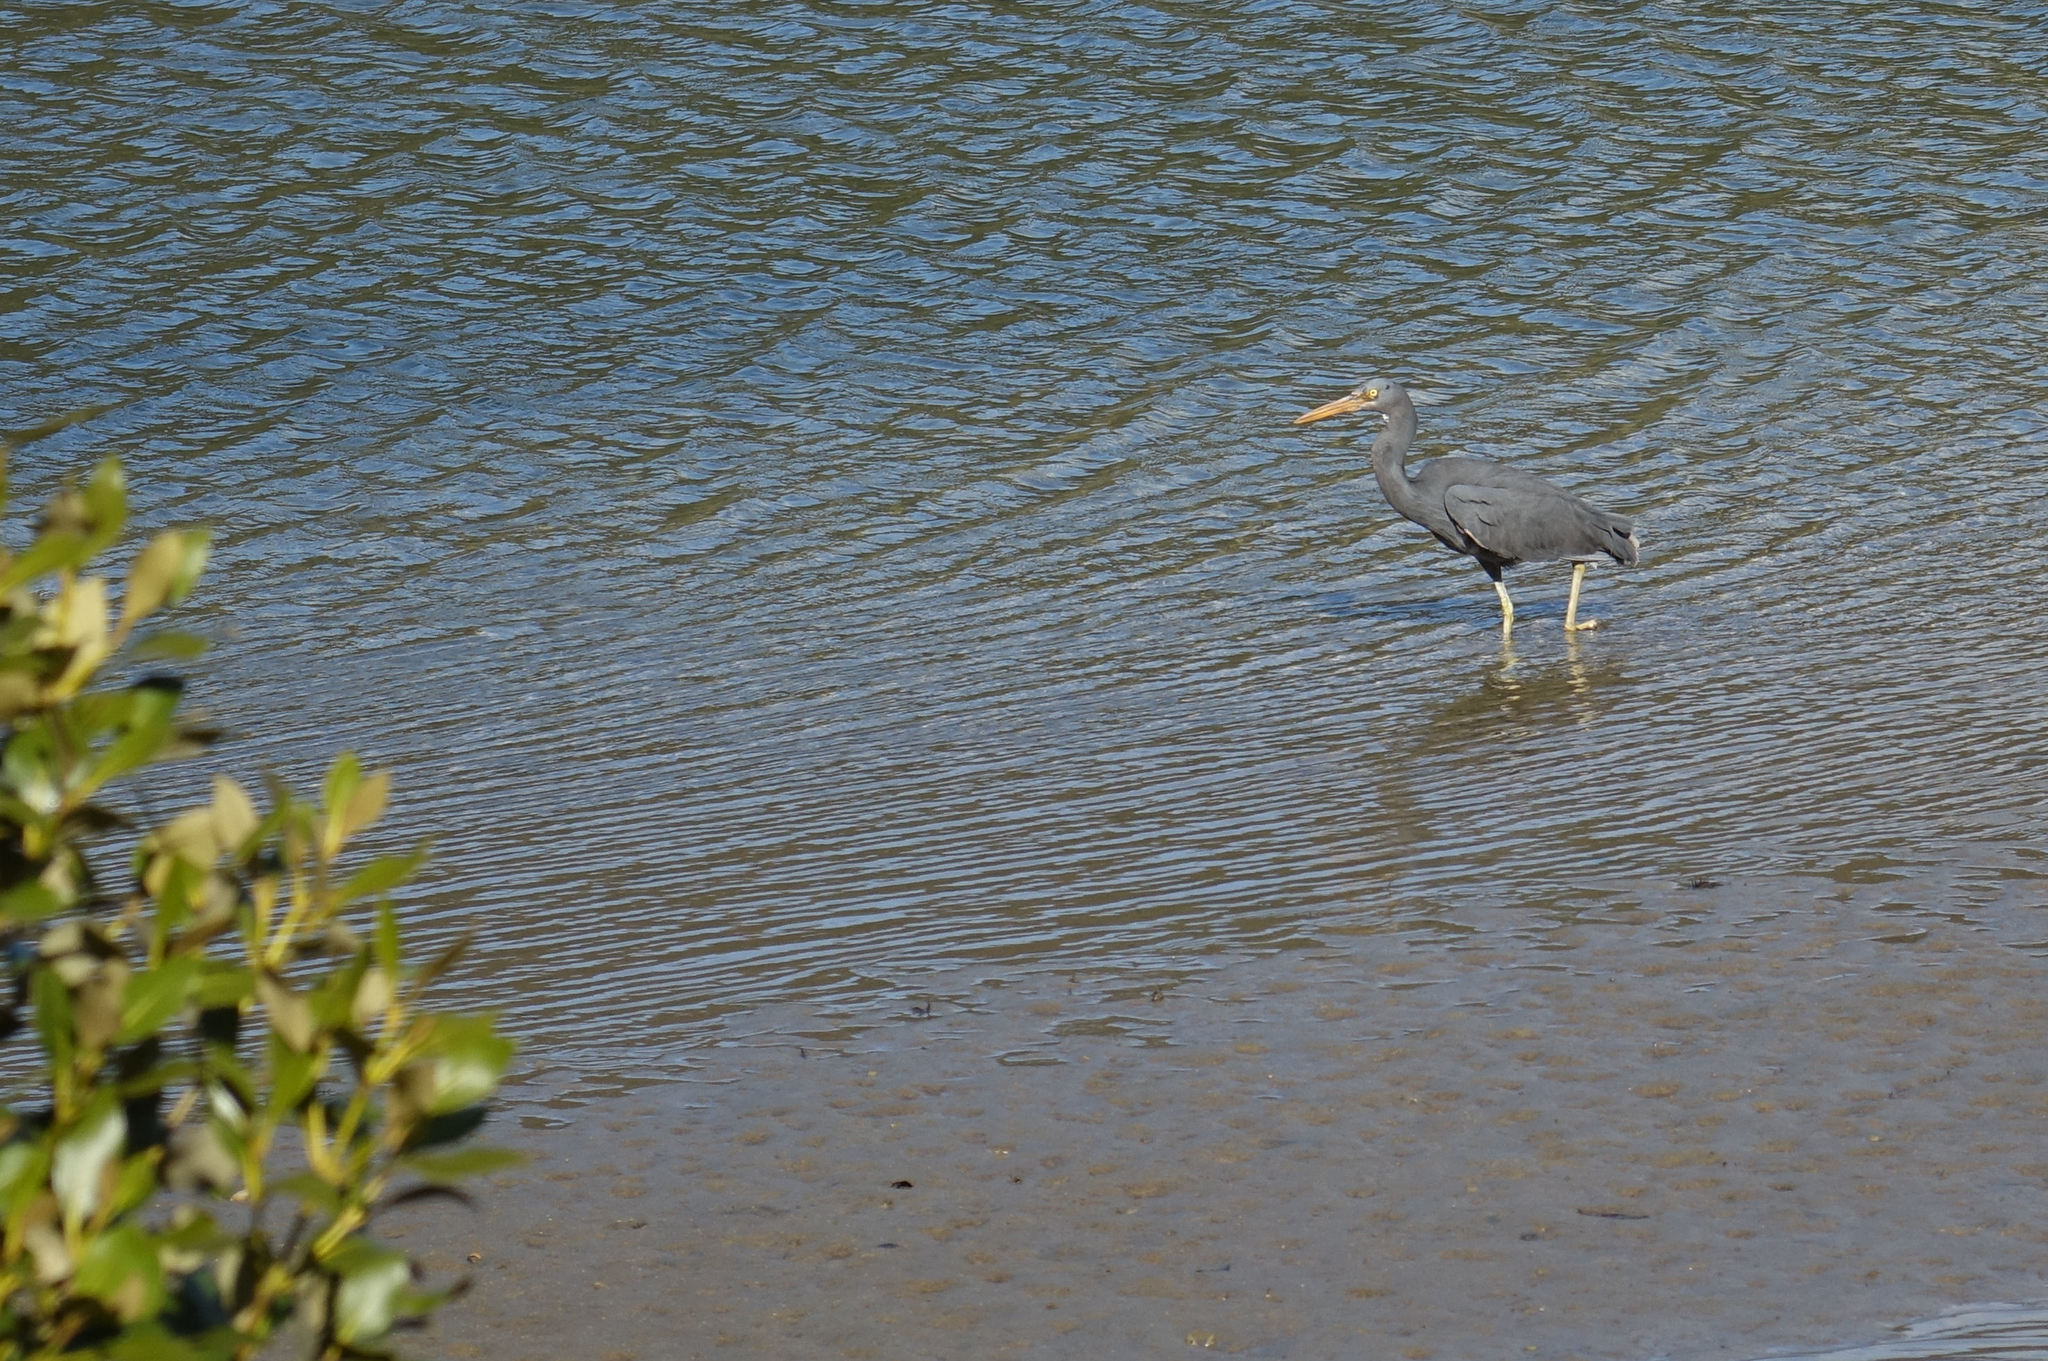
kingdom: Animalia
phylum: Chordata
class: Aves
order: Pelecaniformes
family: Ardeidae
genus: Egretta
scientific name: Egretta sacra
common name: Pacific reef heron
